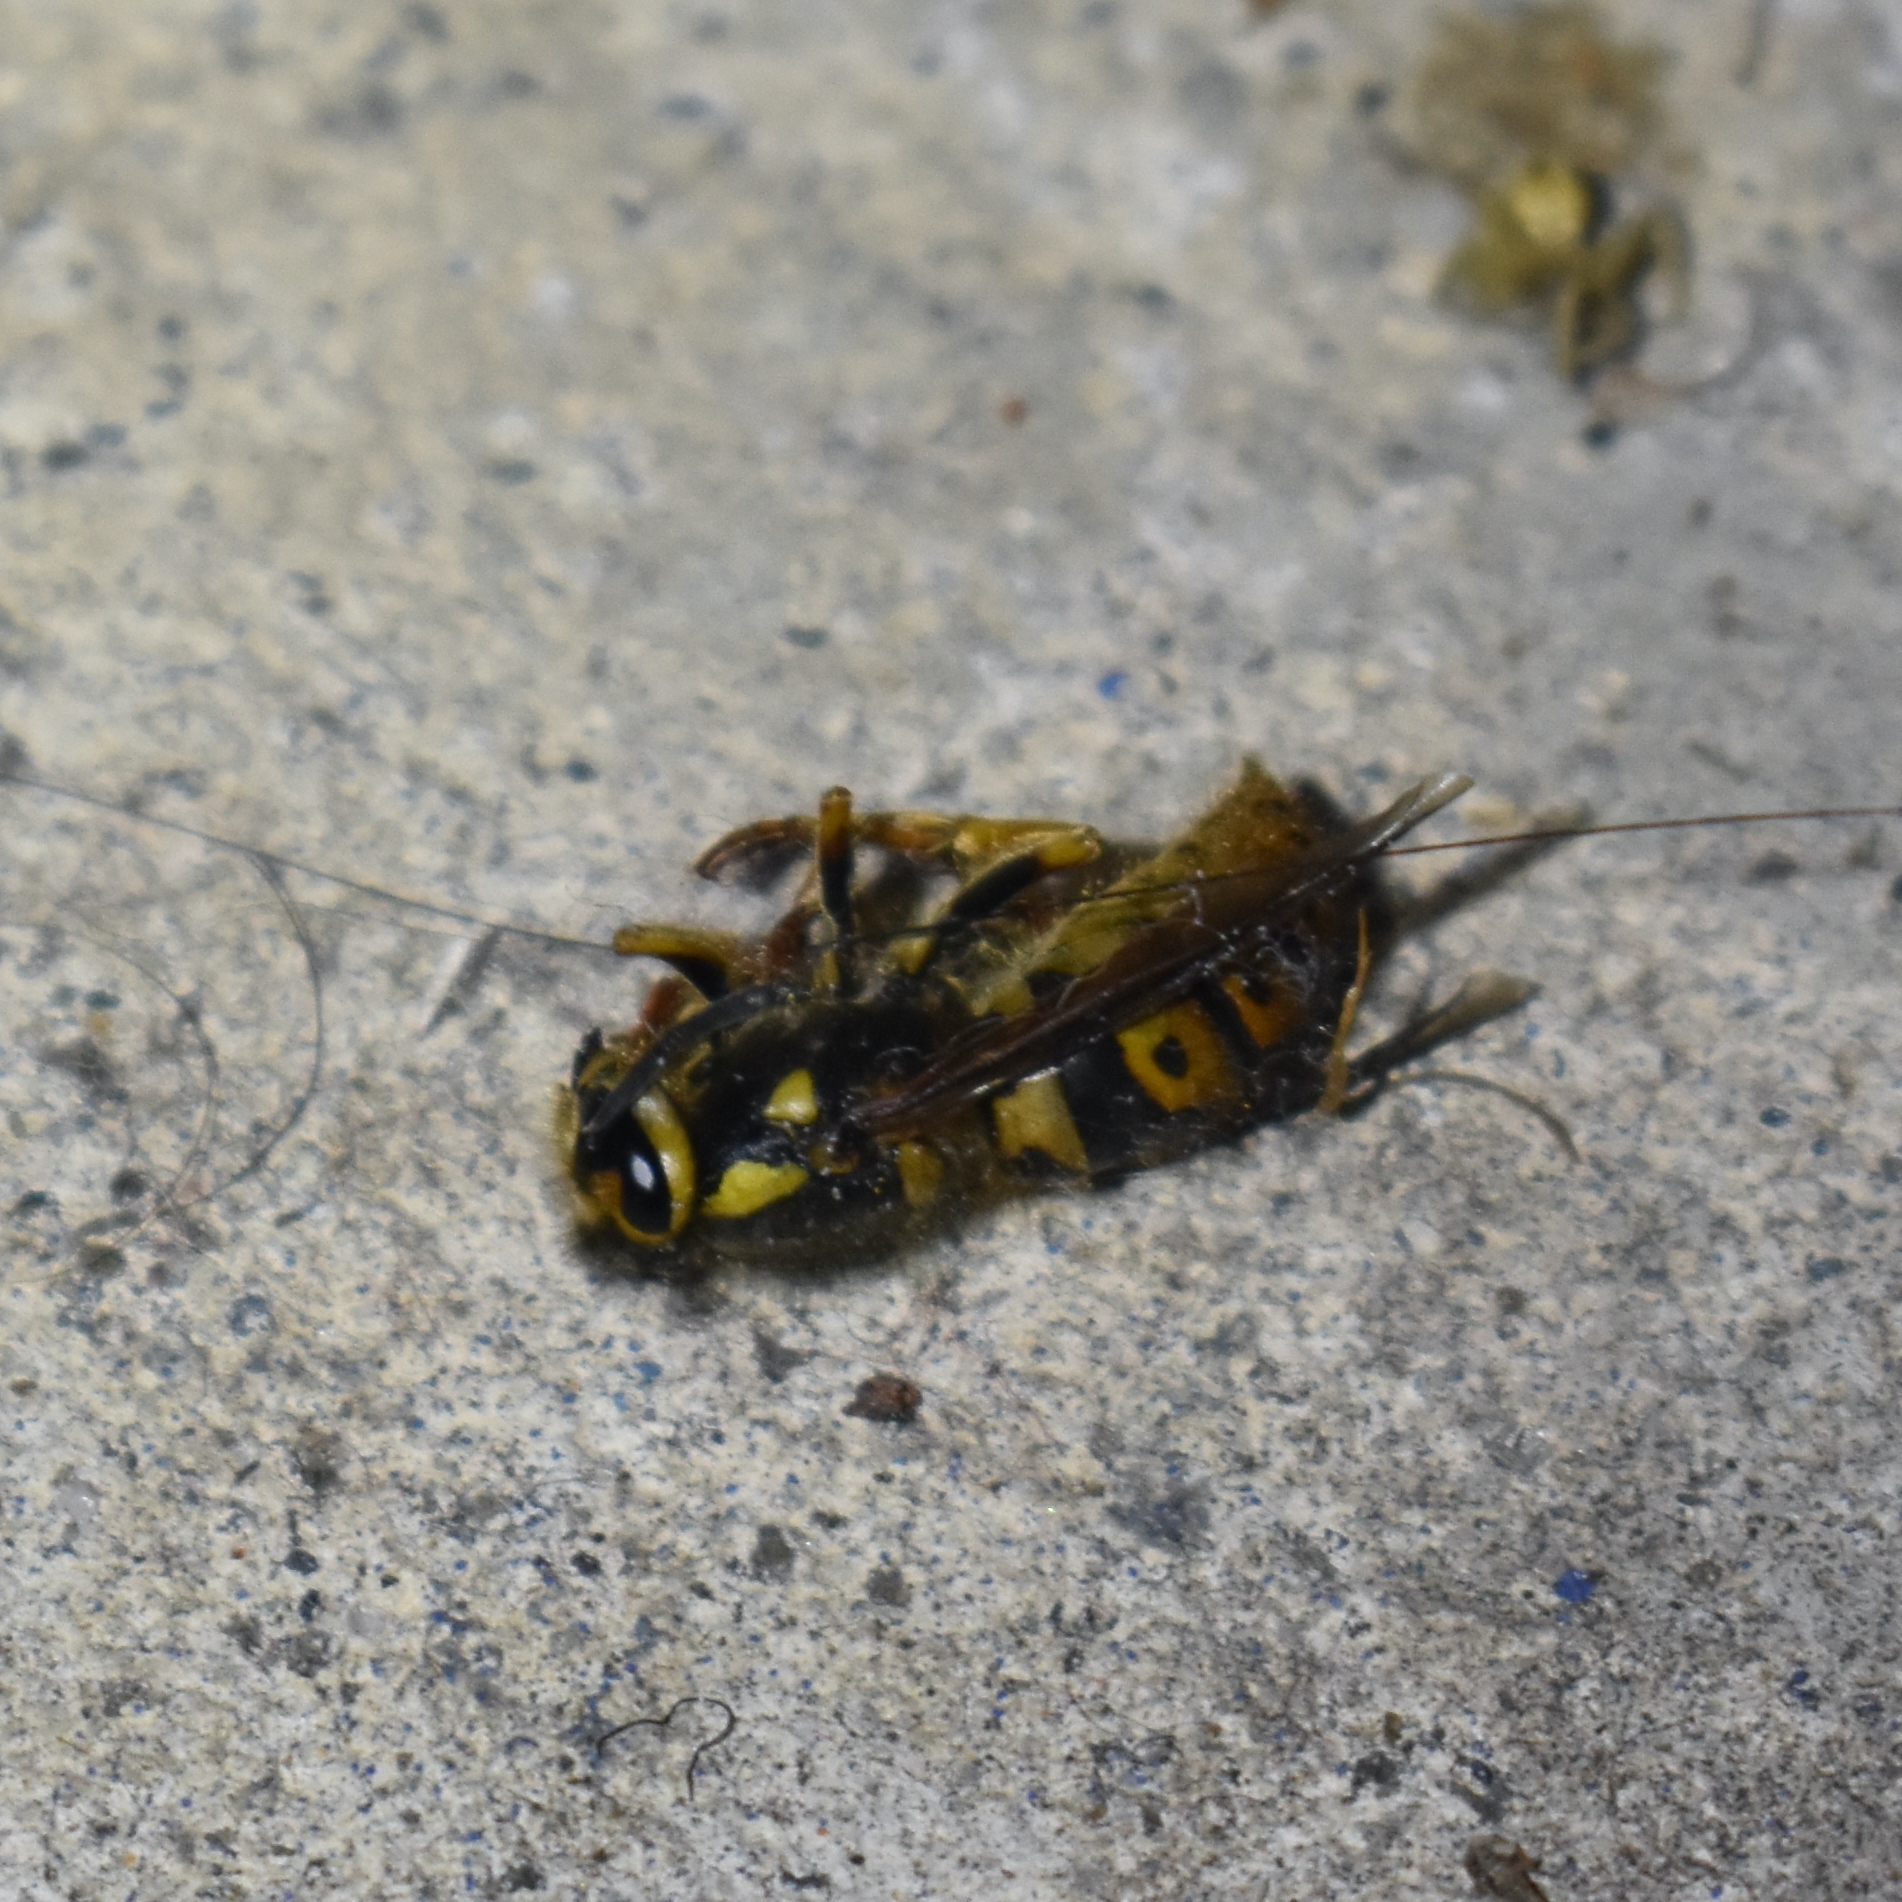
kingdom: Animalia
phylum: Arthropoda
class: Insecta
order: Hymenoptera
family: Vespidae
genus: Vespula
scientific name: Vespula pensylvanica
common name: Western yellowjacket
